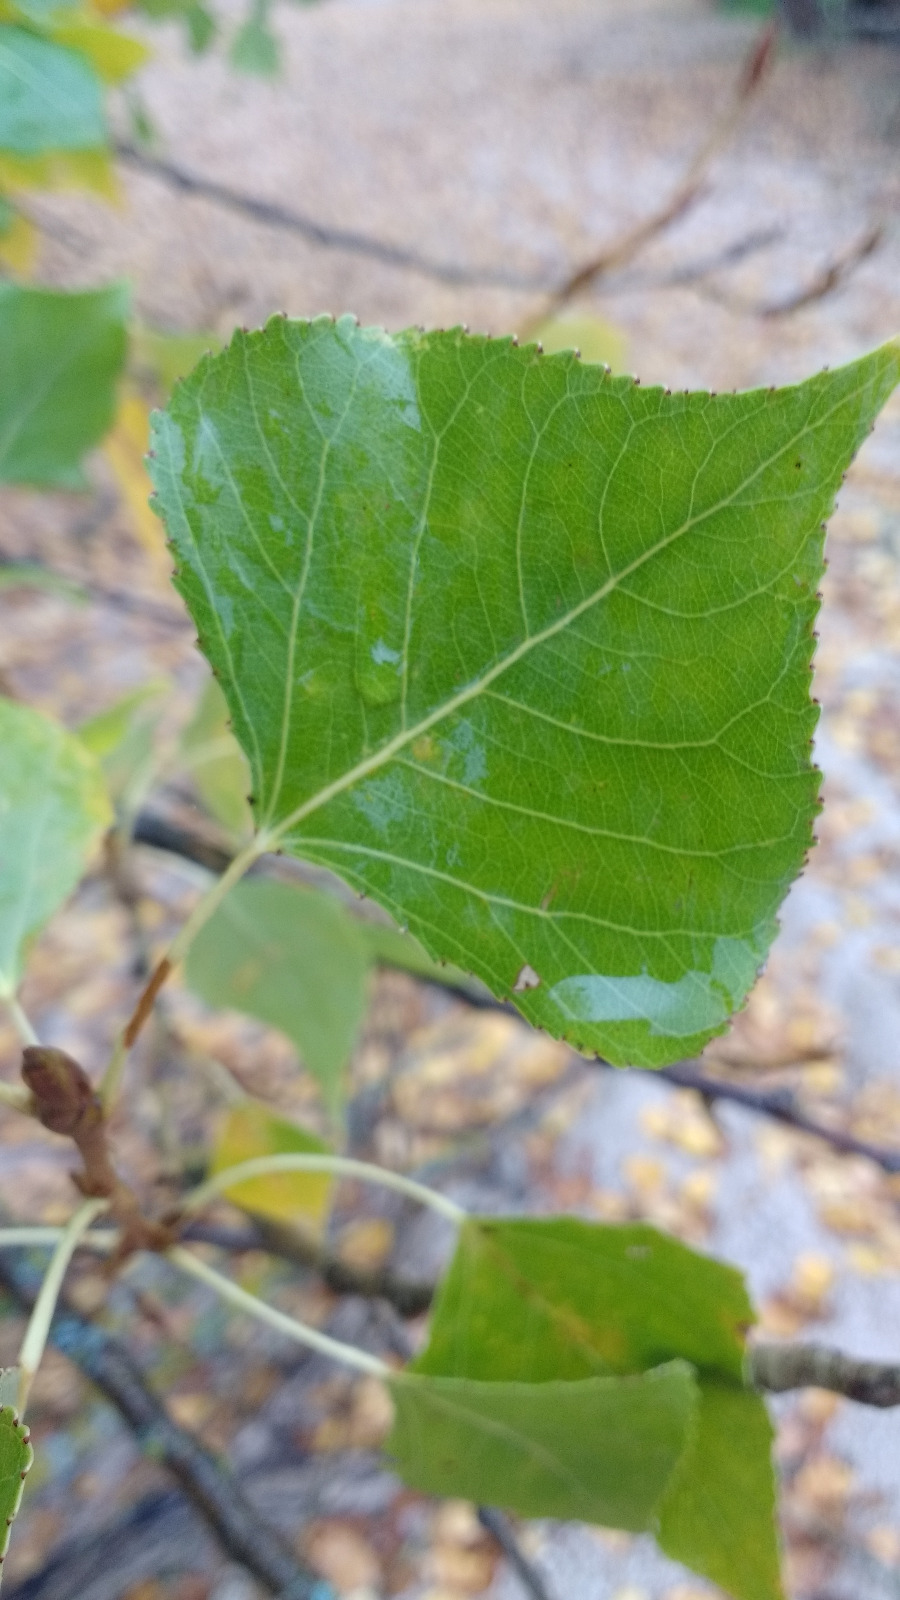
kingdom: Plantae
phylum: Tracheophyta
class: Magnoliopsida
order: Malpighiales
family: Salicaceae
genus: Populus
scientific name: Populus nigra
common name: Black poplar
